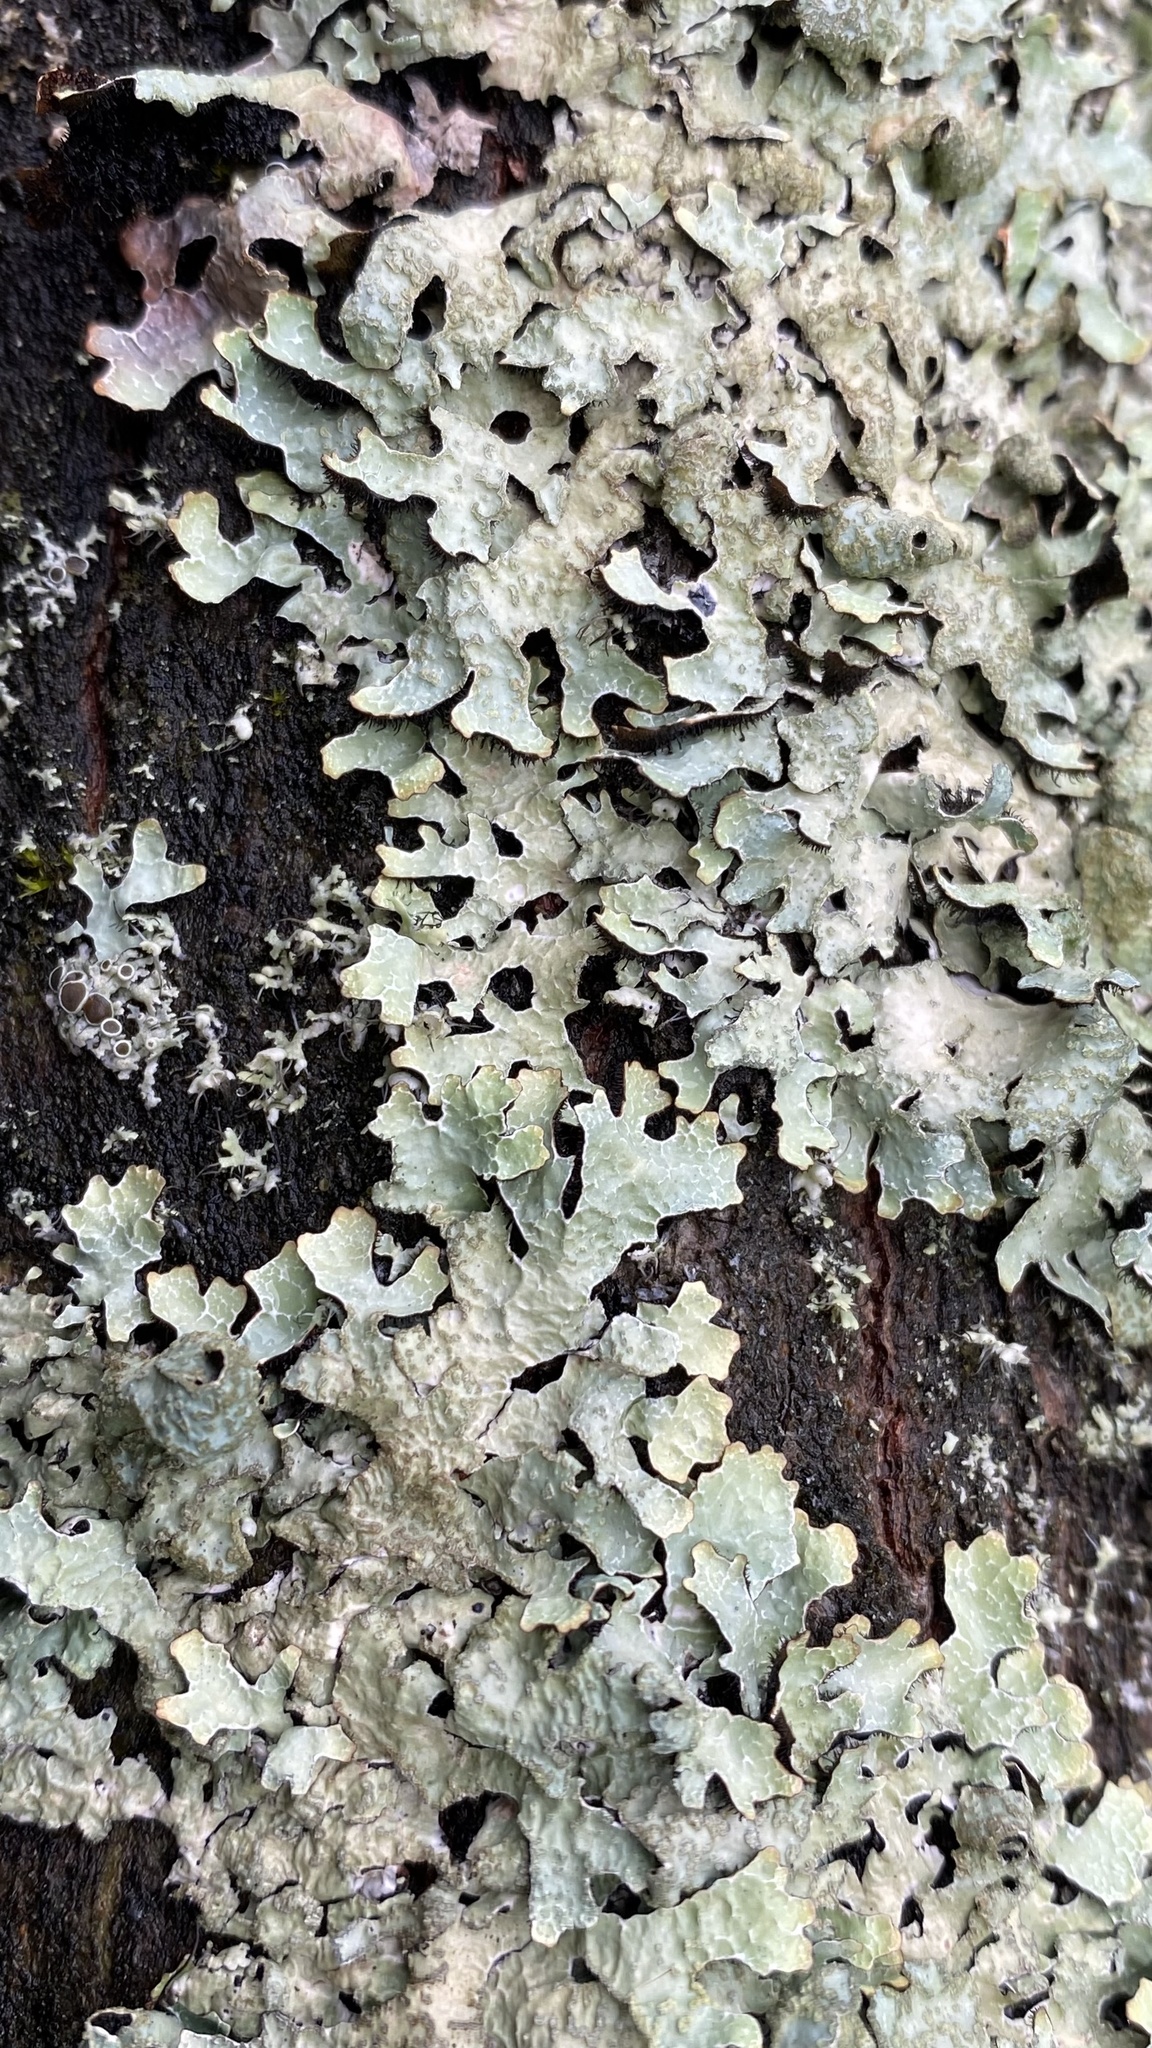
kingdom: Fungi
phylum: Ascomycota
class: Lecanoromycetes
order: Lecanorales
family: Parmeliaceae
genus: Parmelia
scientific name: Parmelia sulcata
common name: Netted shield lichen
